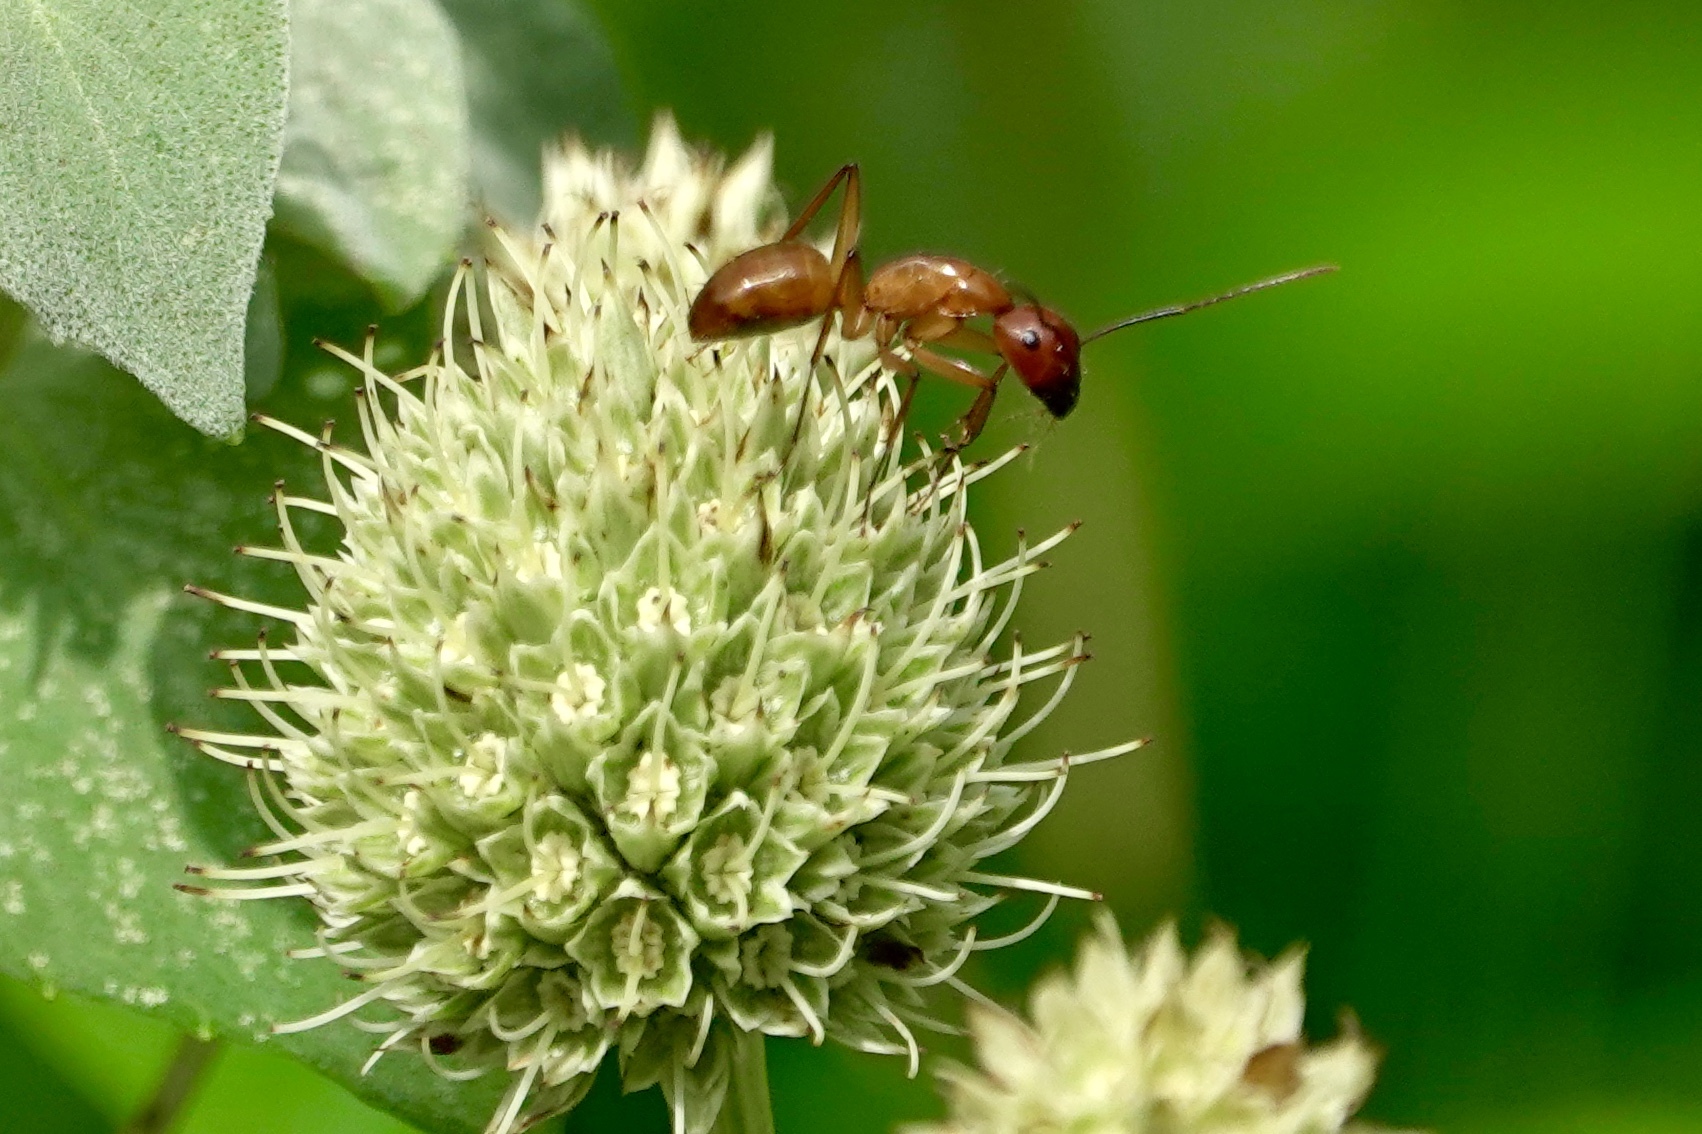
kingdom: Animalia
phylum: Arthropoda
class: Insecta
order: Hymenoptera
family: Formicidae
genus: Camponotus
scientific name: Camponotus castaneus
